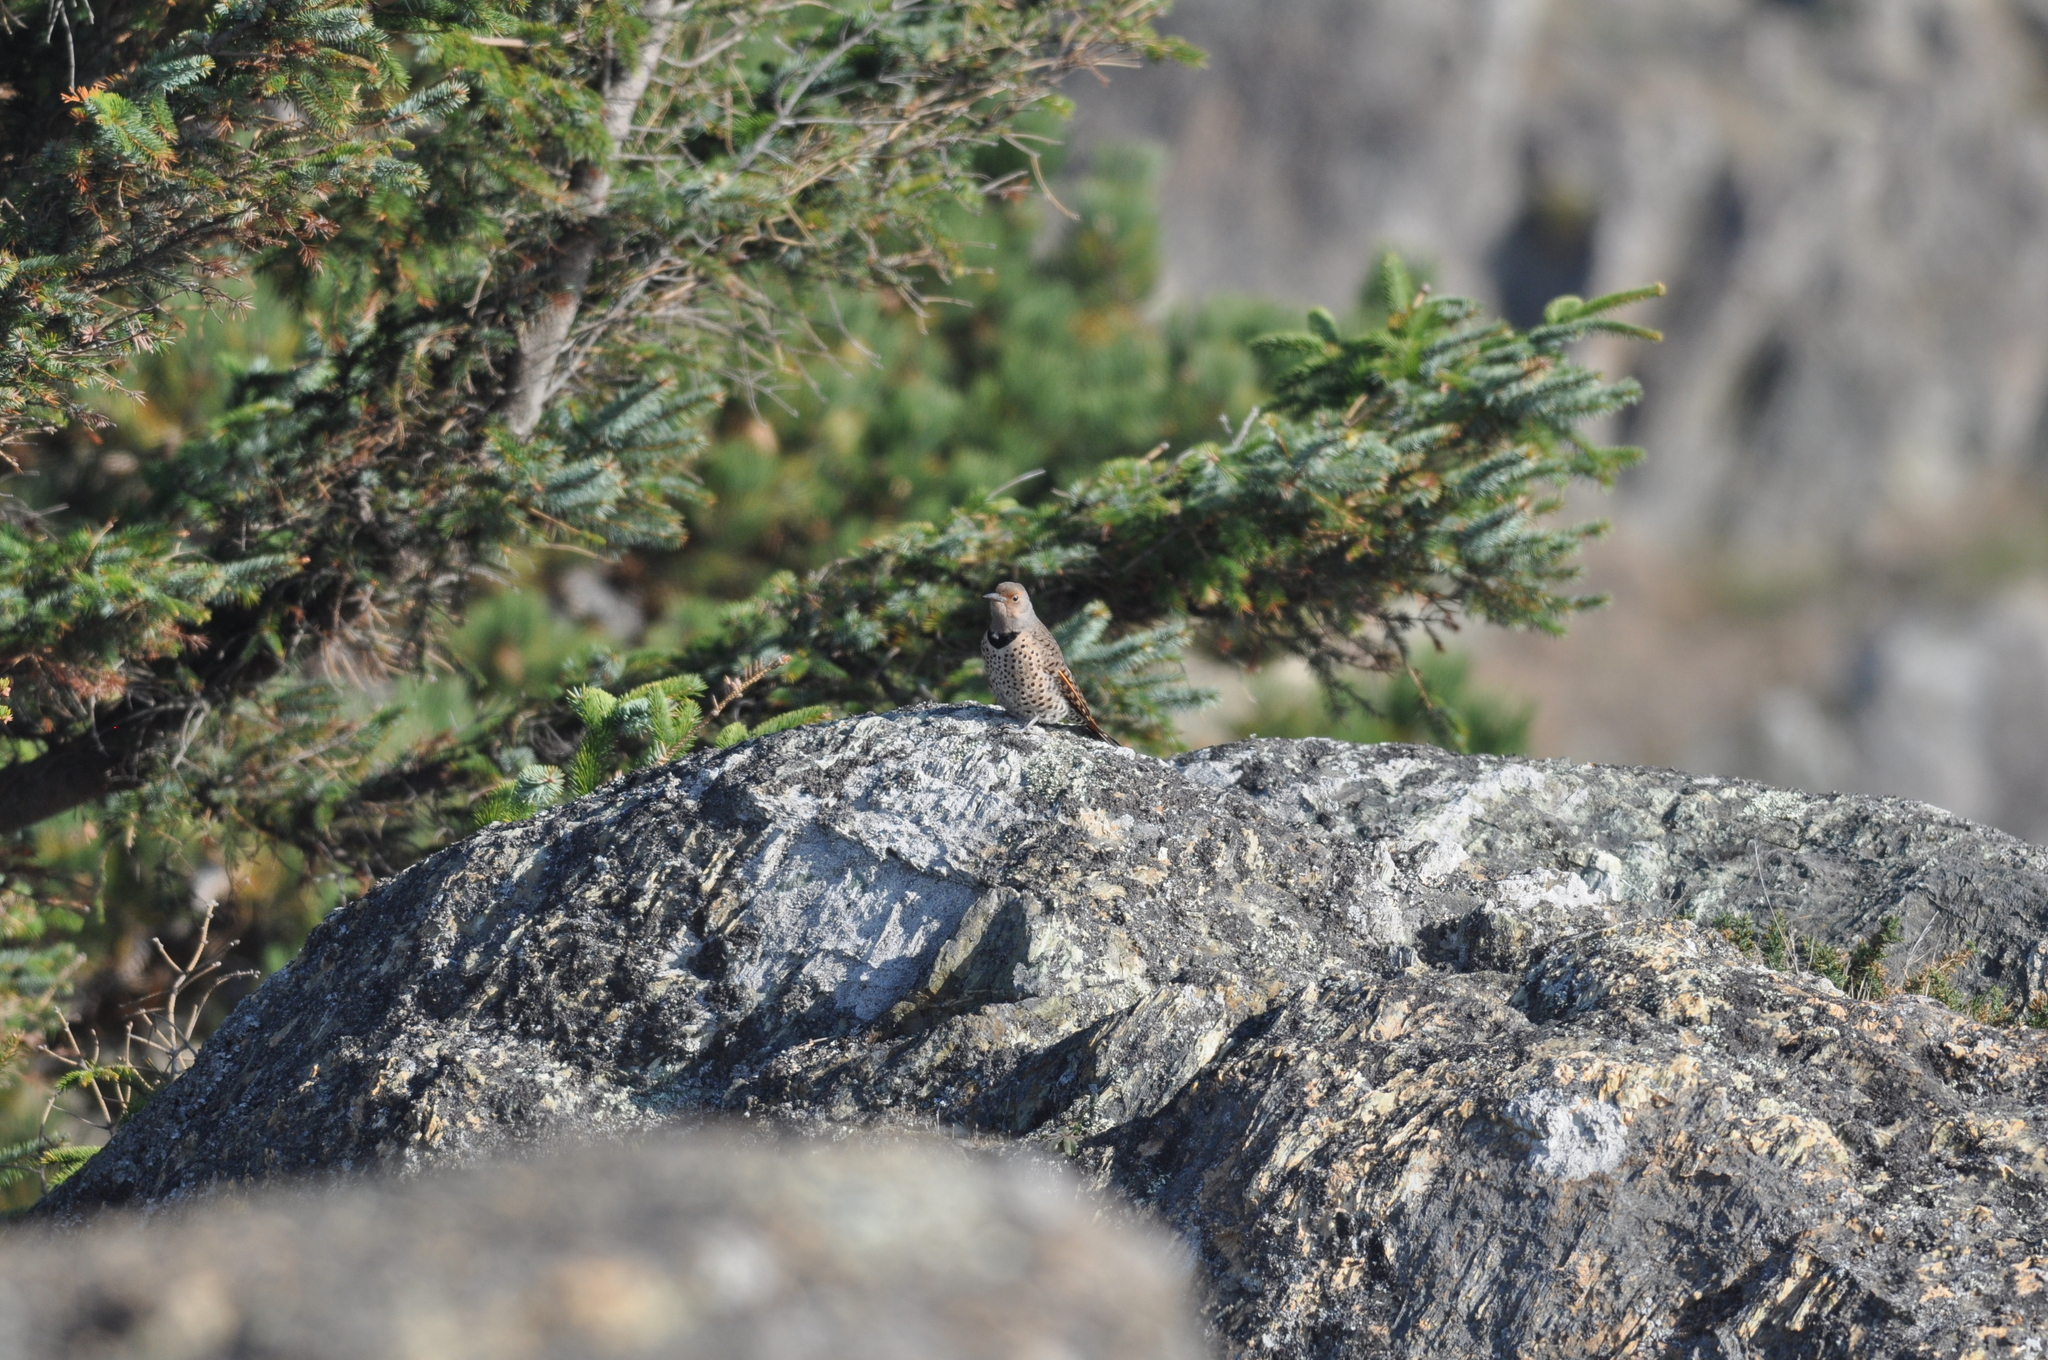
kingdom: Animalia
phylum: Chordata
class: Aves
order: Piciformes
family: Picidae
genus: Colaptes
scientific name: Colaptes auratus
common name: Northern flicker
